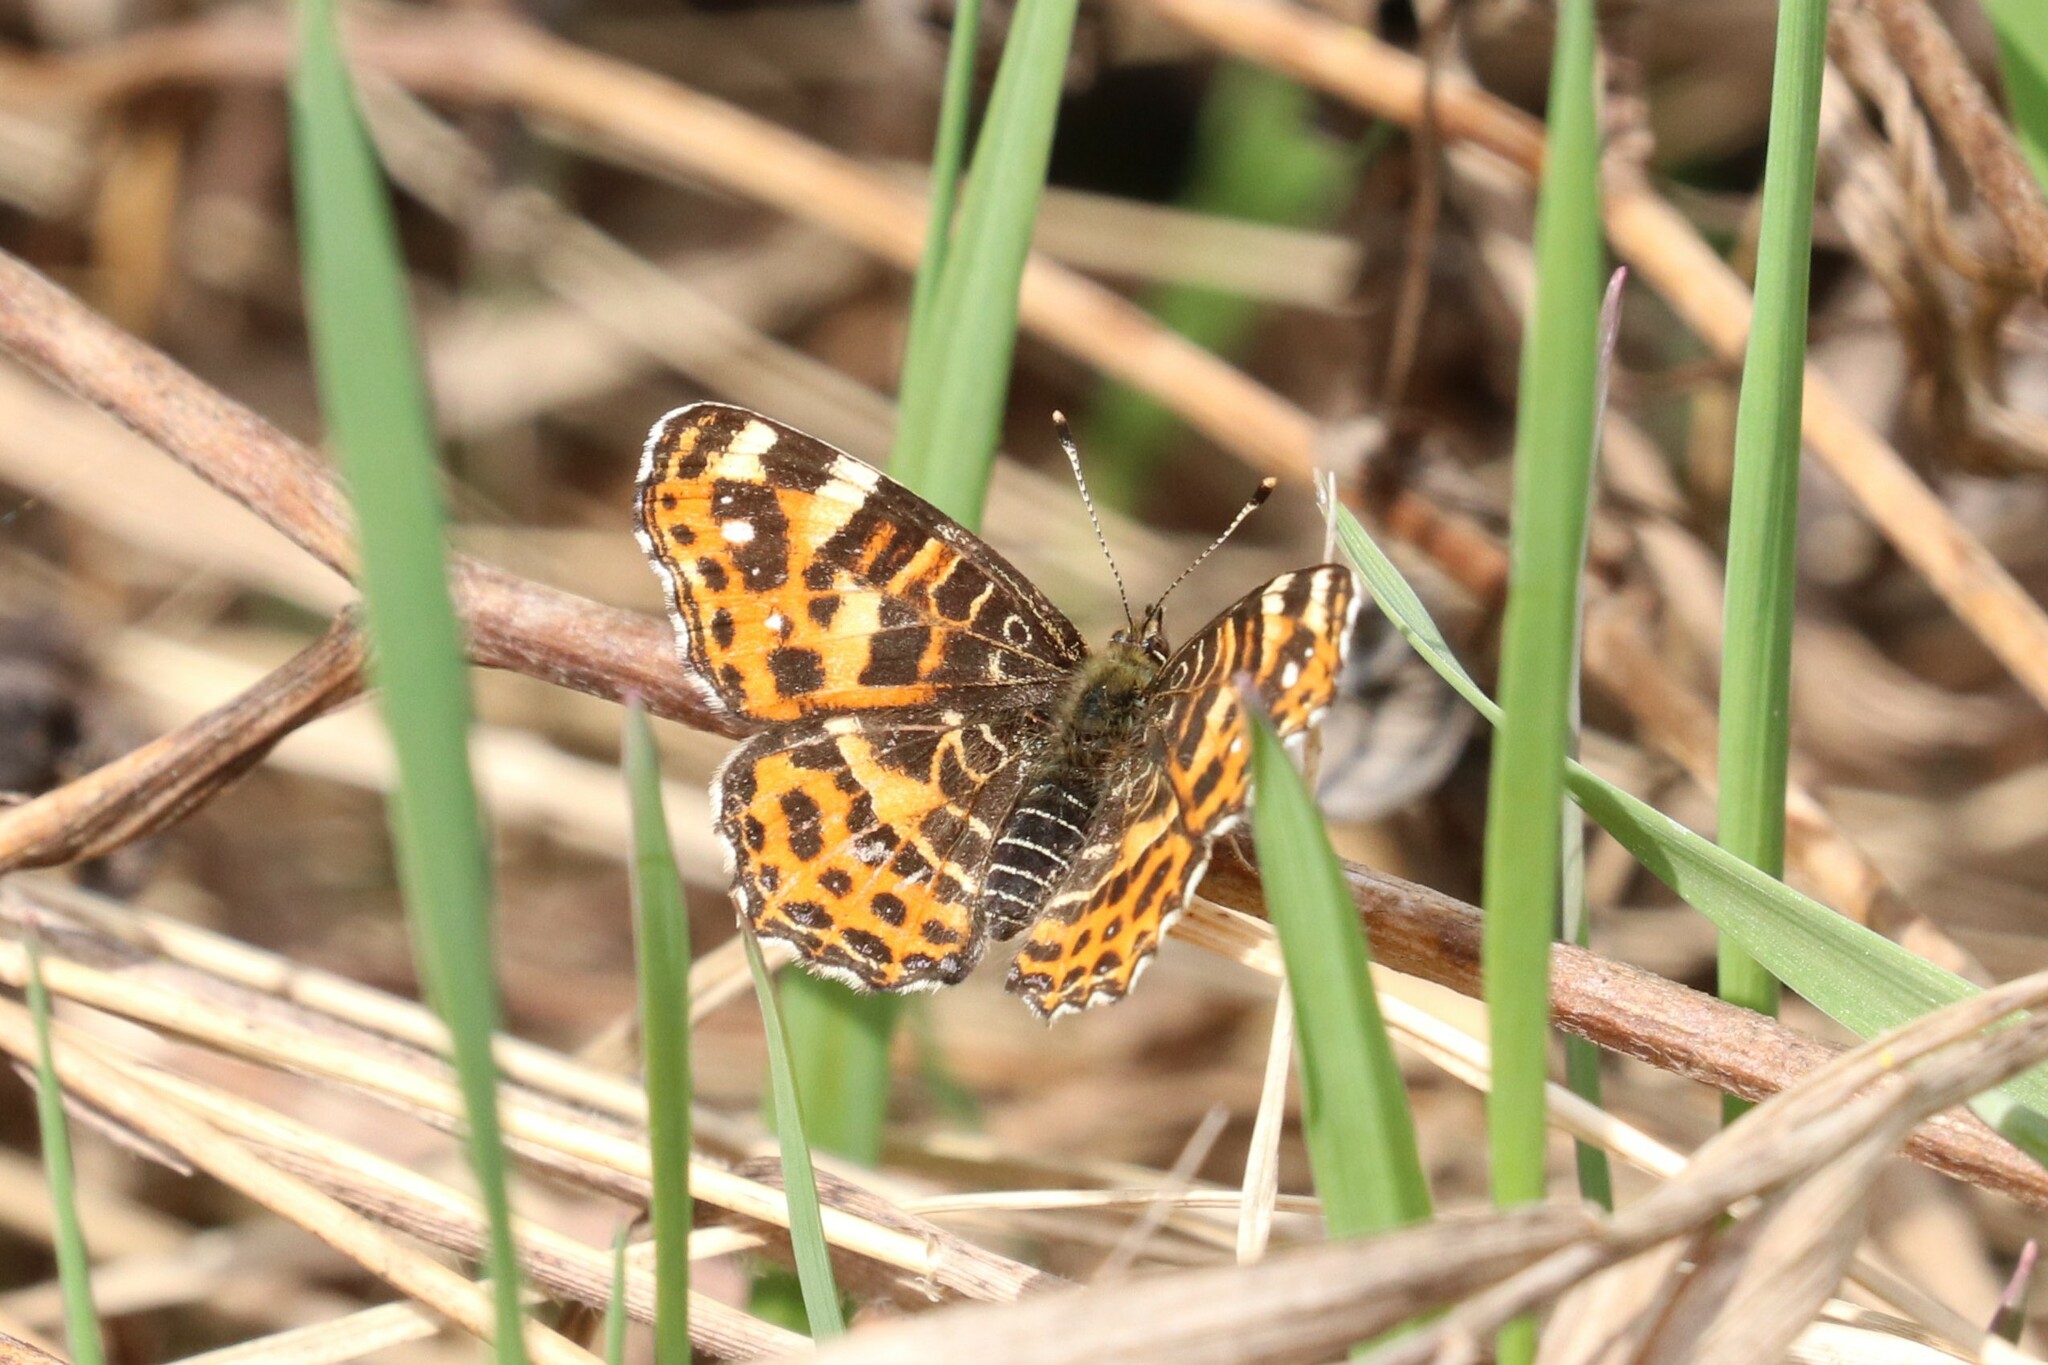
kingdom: Animalia
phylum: Arthropoda
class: Insecta
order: Lepidoptera
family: Nymphalidae
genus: Araschnia
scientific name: Araschnia levana
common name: Map butterfly
